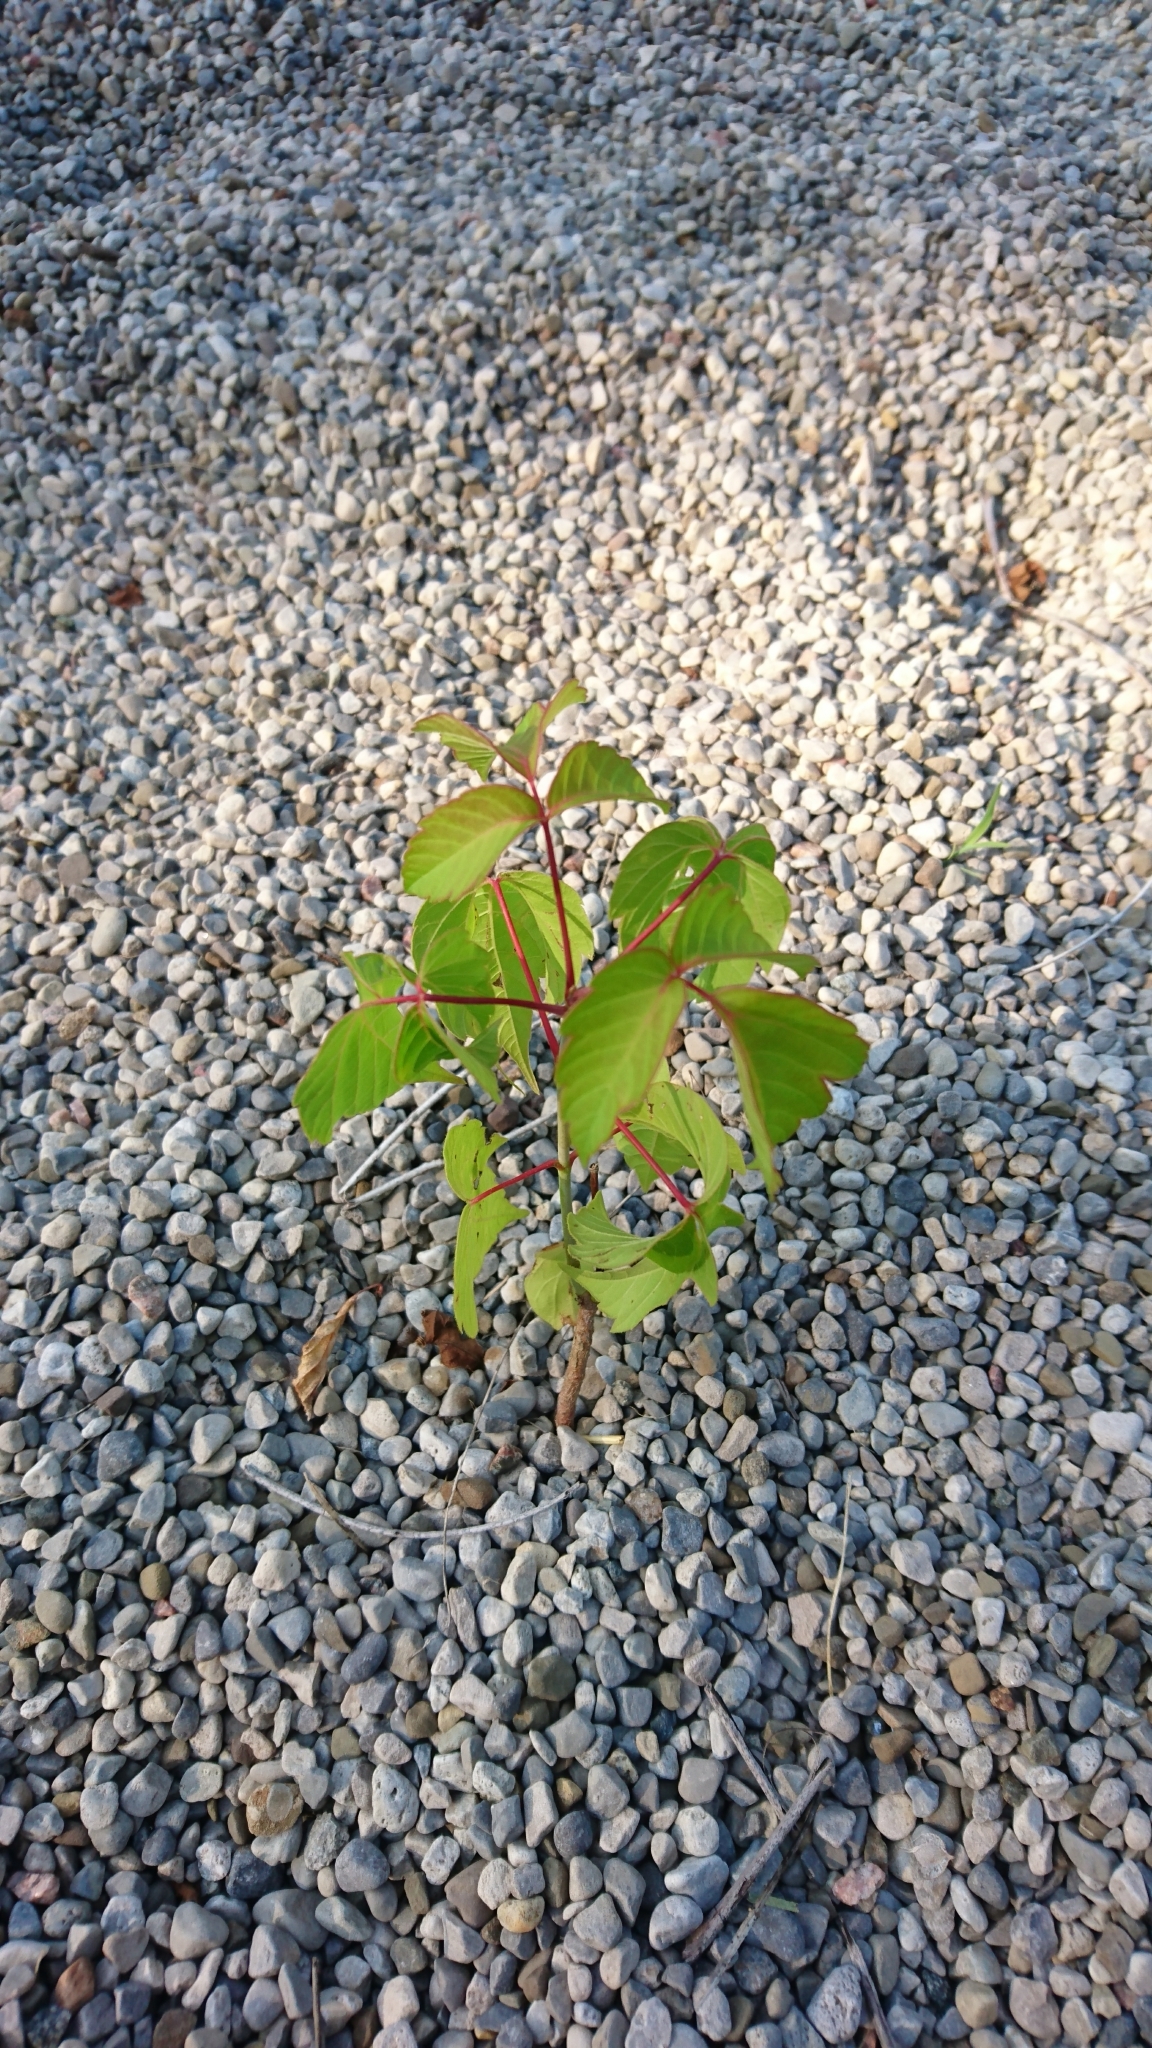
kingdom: Plantae
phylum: Tracheophyta
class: Magnoliopsida
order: Sapindales
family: Sapindaceae
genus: Acer
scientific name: Acer negundo
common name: Ashleaf maple
